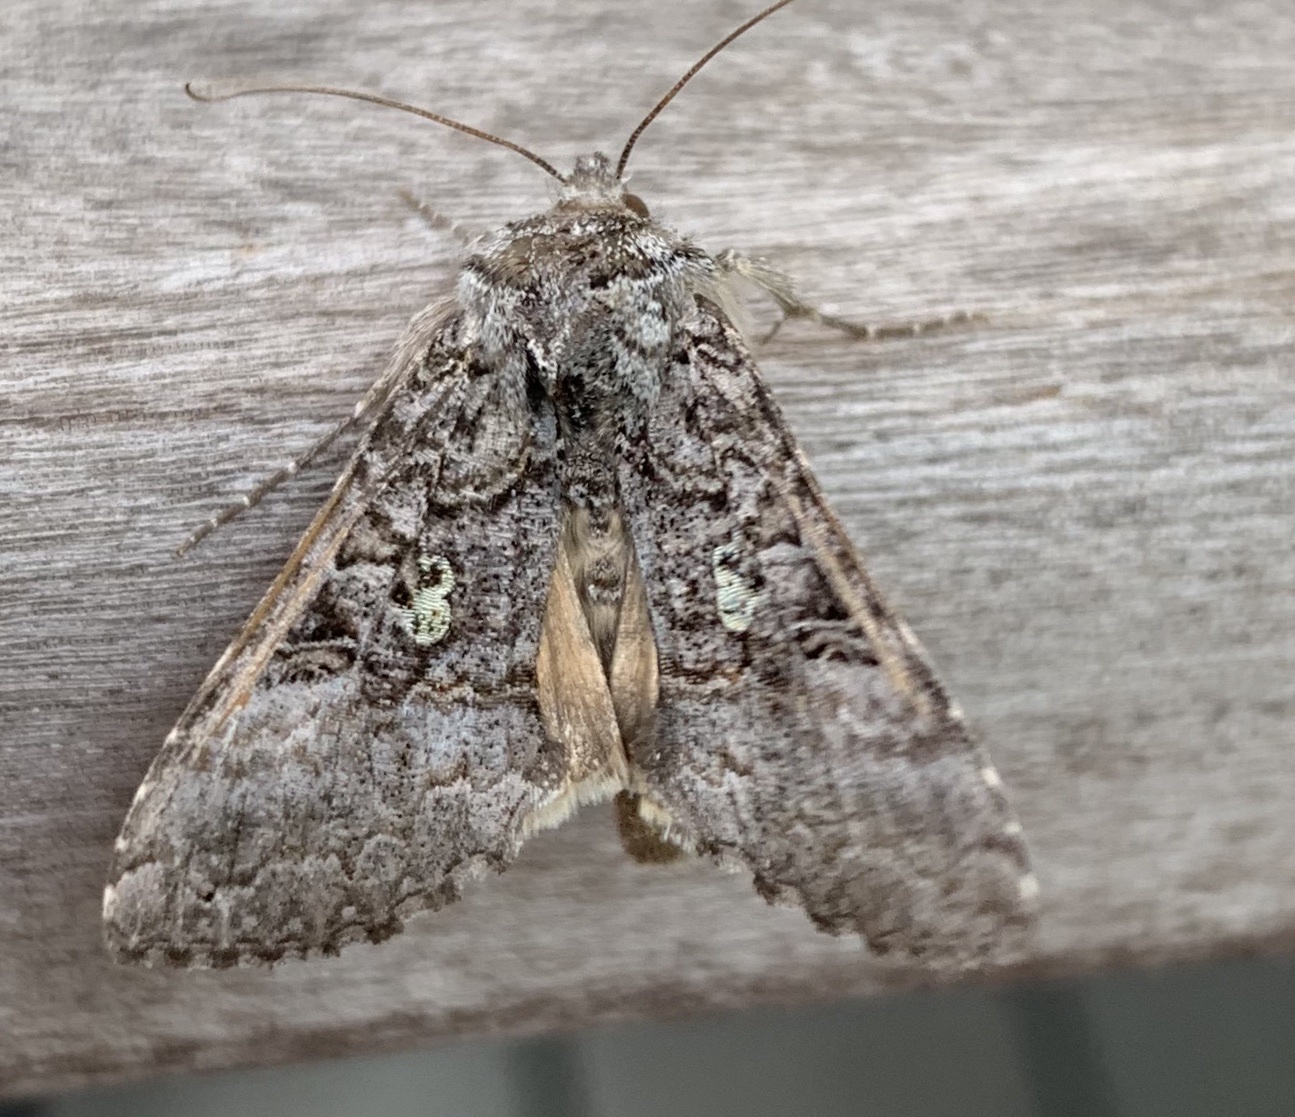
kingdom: Animalia
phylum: Arthropoda
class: Insecta
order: Lepidoptera
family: Noctuidae
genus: Syngrapha
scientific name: Syngrapha viridisigma
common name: Spruce false looper moth
